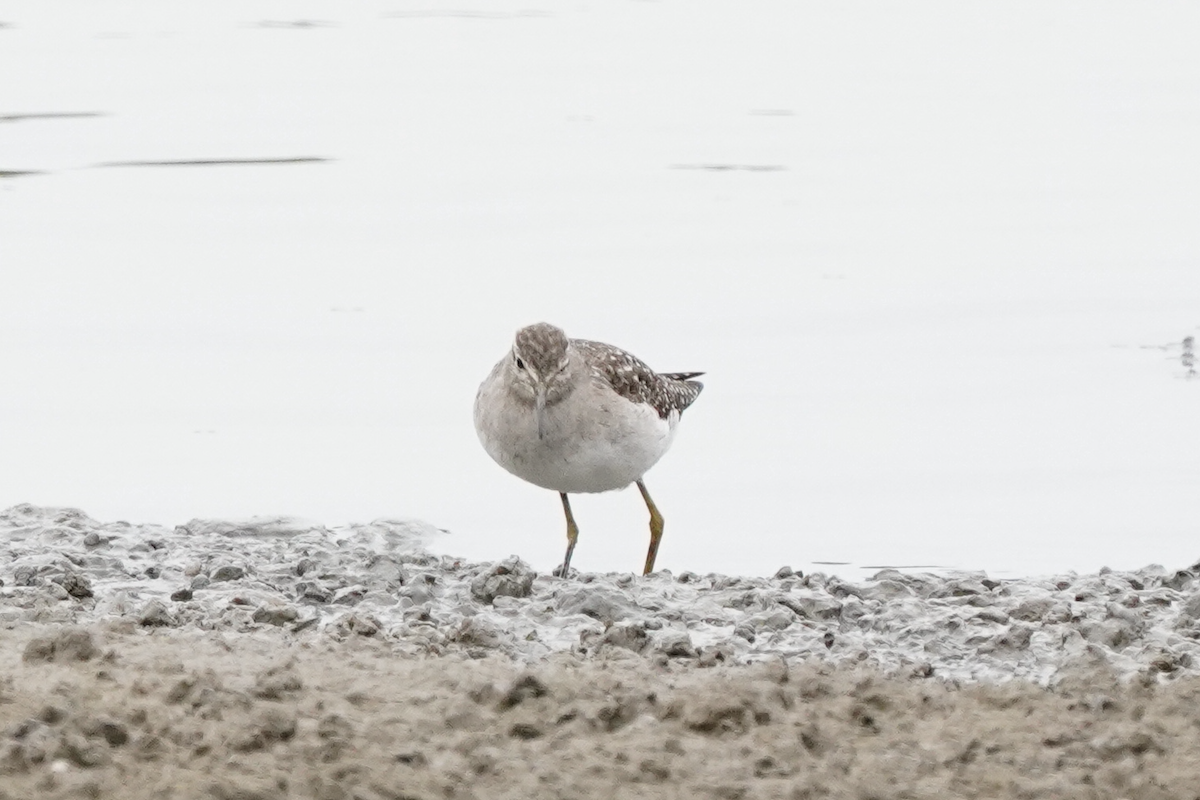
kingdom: Animalia
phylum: Chordata
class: Aves
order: Charadriiformes
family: Scolopacidae
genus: Tringa
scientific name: Tringa glareola
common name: Wood sandpiper
